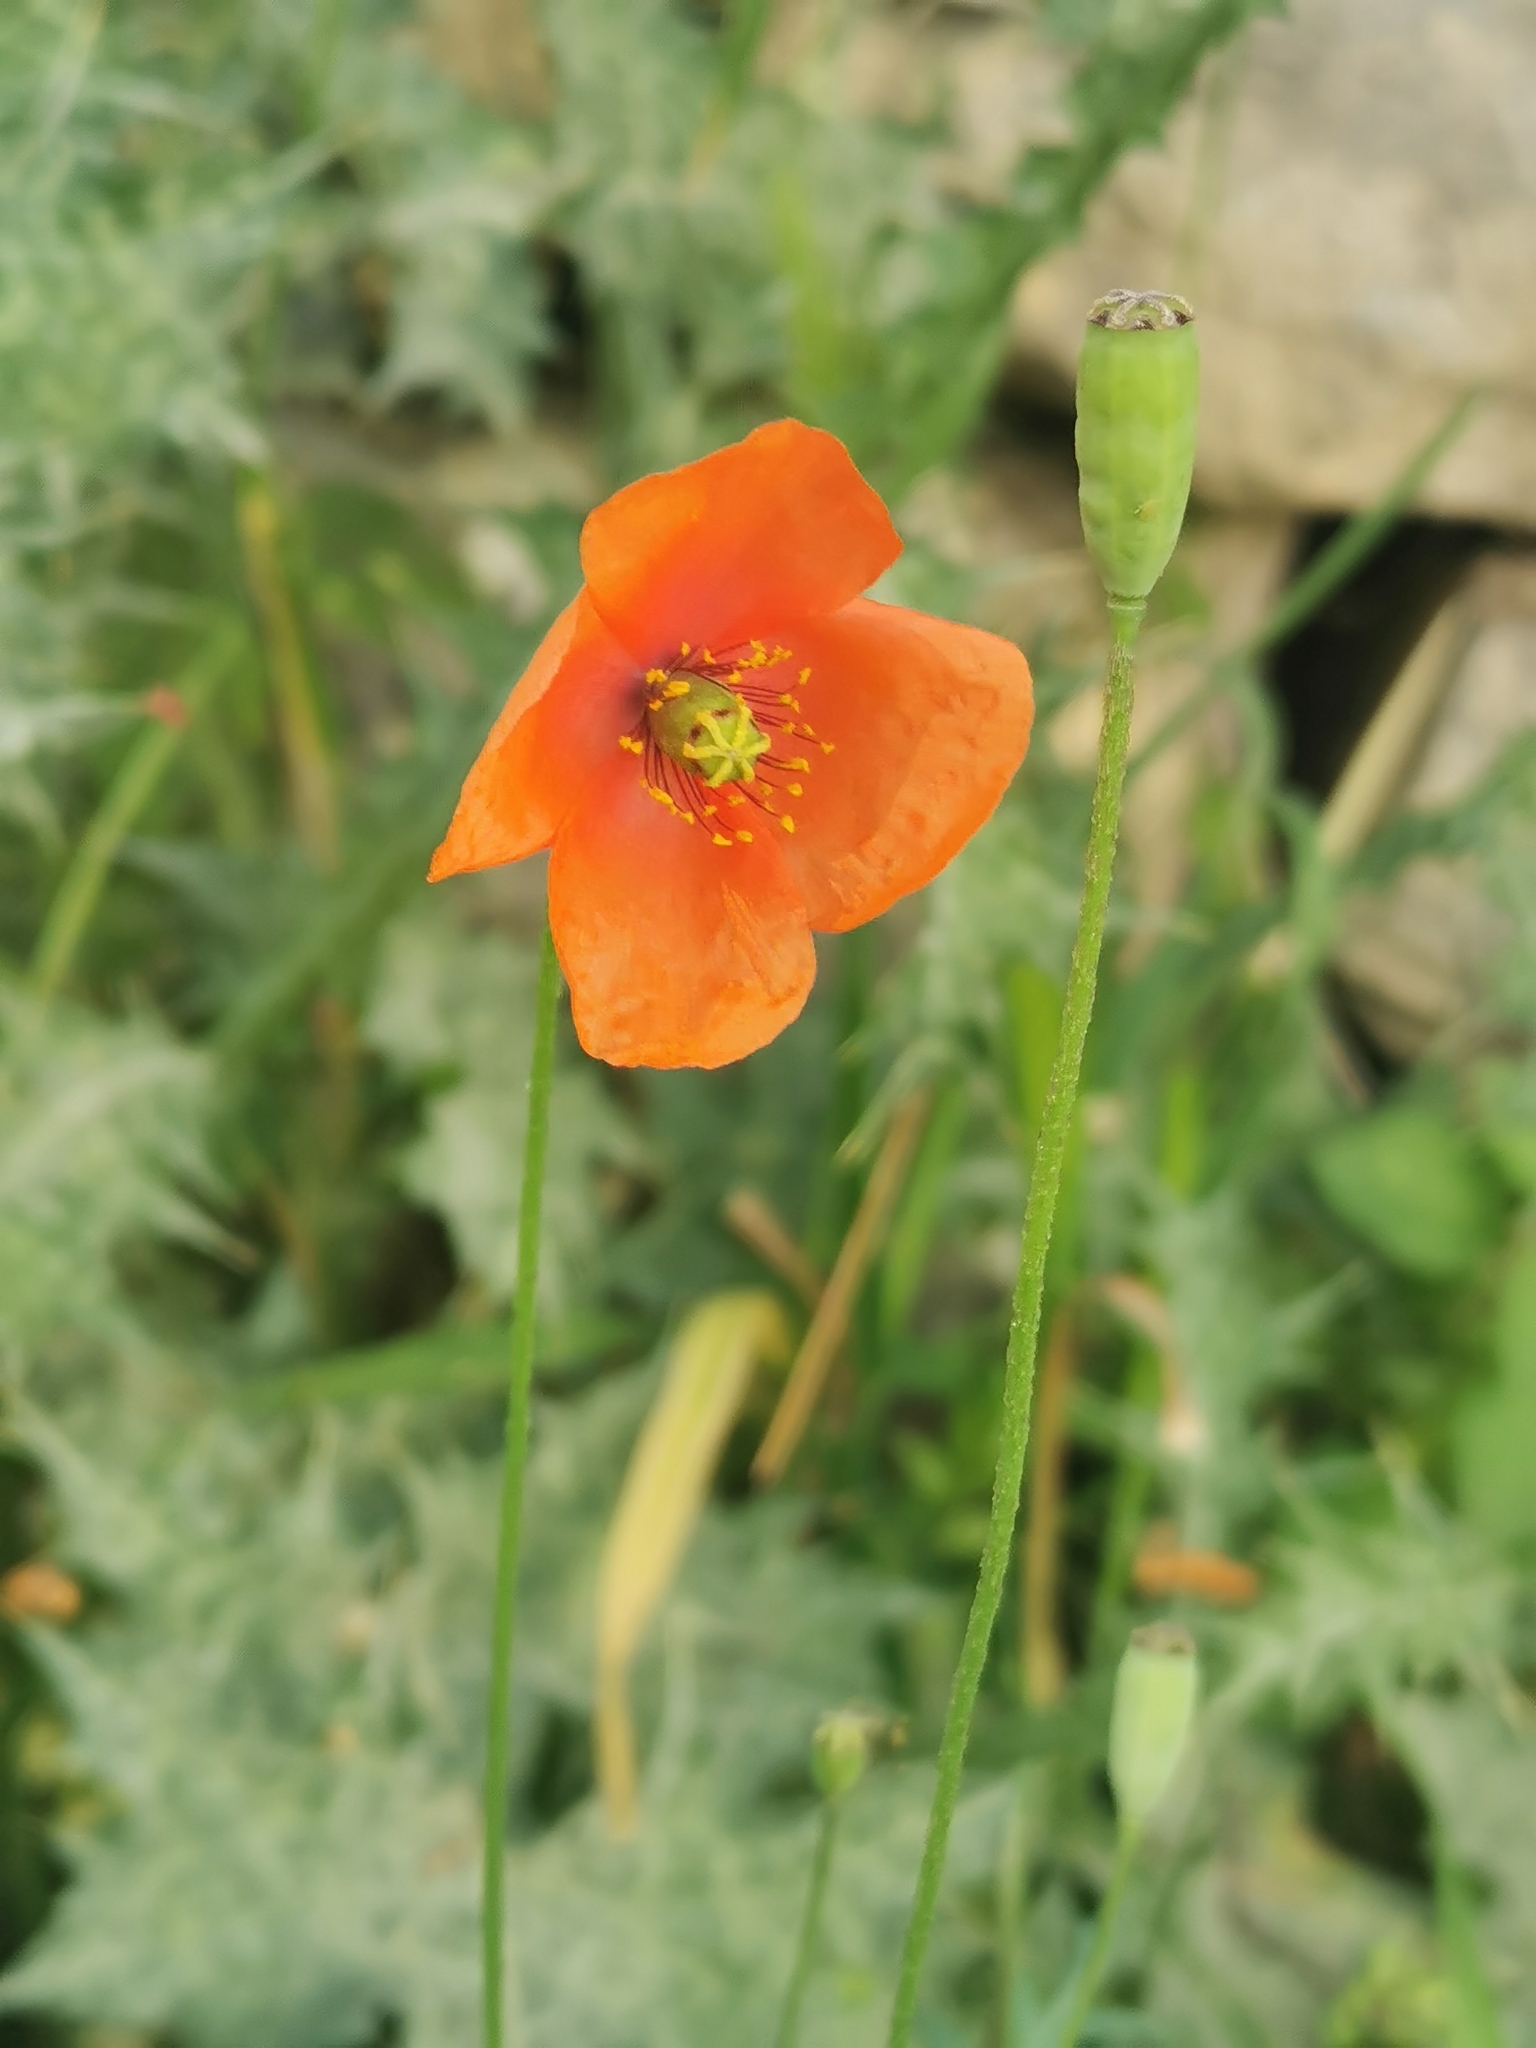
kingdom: Plantae
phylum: Tracheophyta
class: Magnoliopsida
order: Ranunculales
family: Papaveraceae
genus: Papaver
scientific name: Papaver purpureomarginatum
